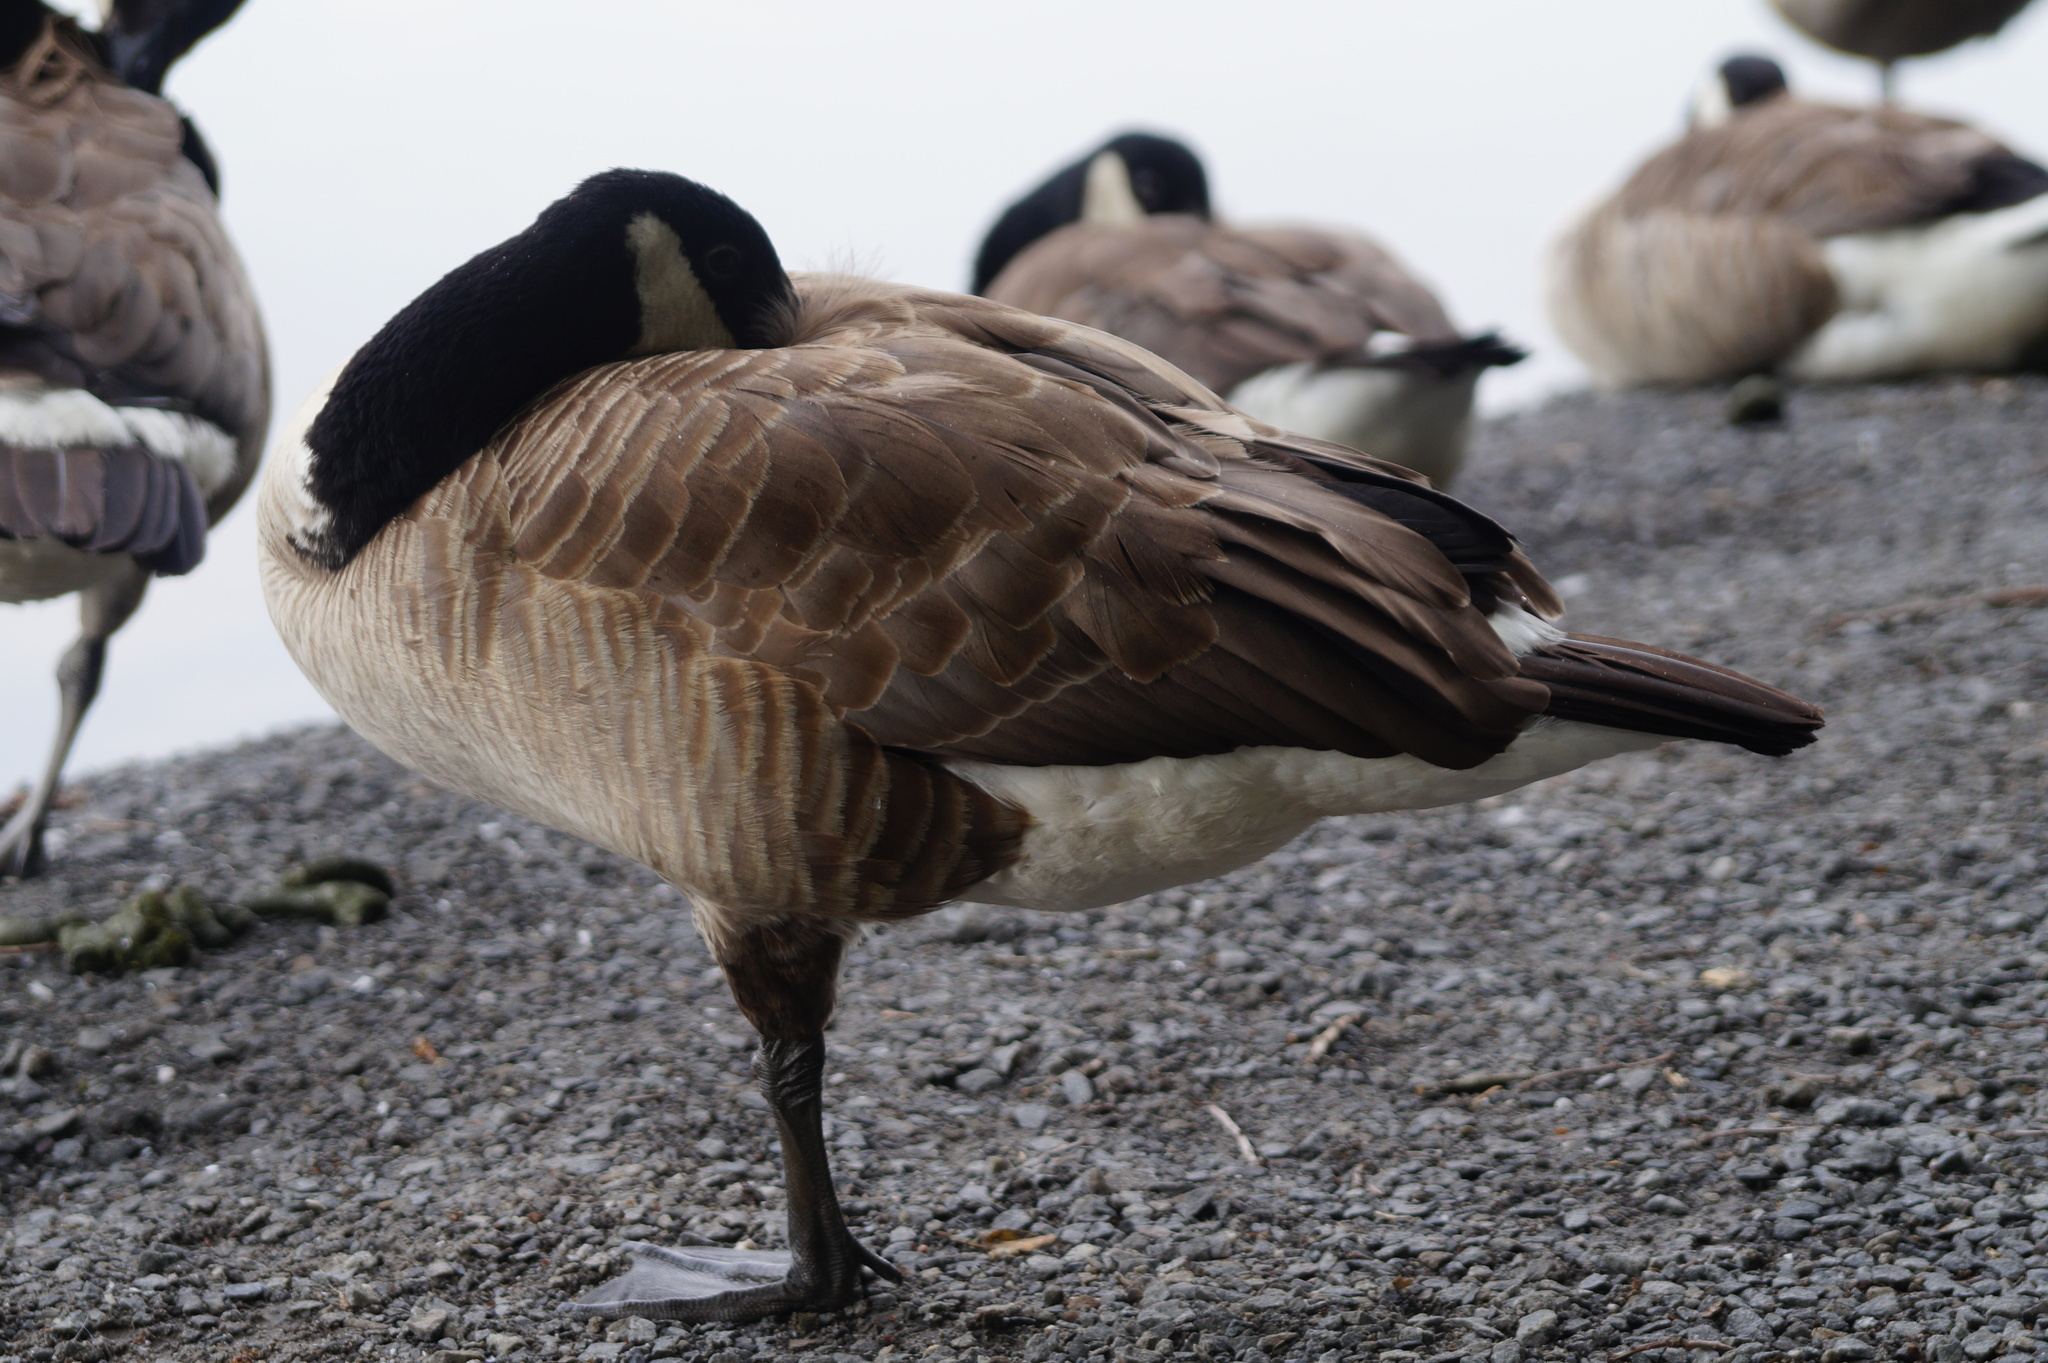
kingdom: Animalia
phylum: Chordata
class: Aves
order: Anseriformes
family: Anatidae
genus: Branta
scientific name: Branta canadensis
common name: Canada goose
